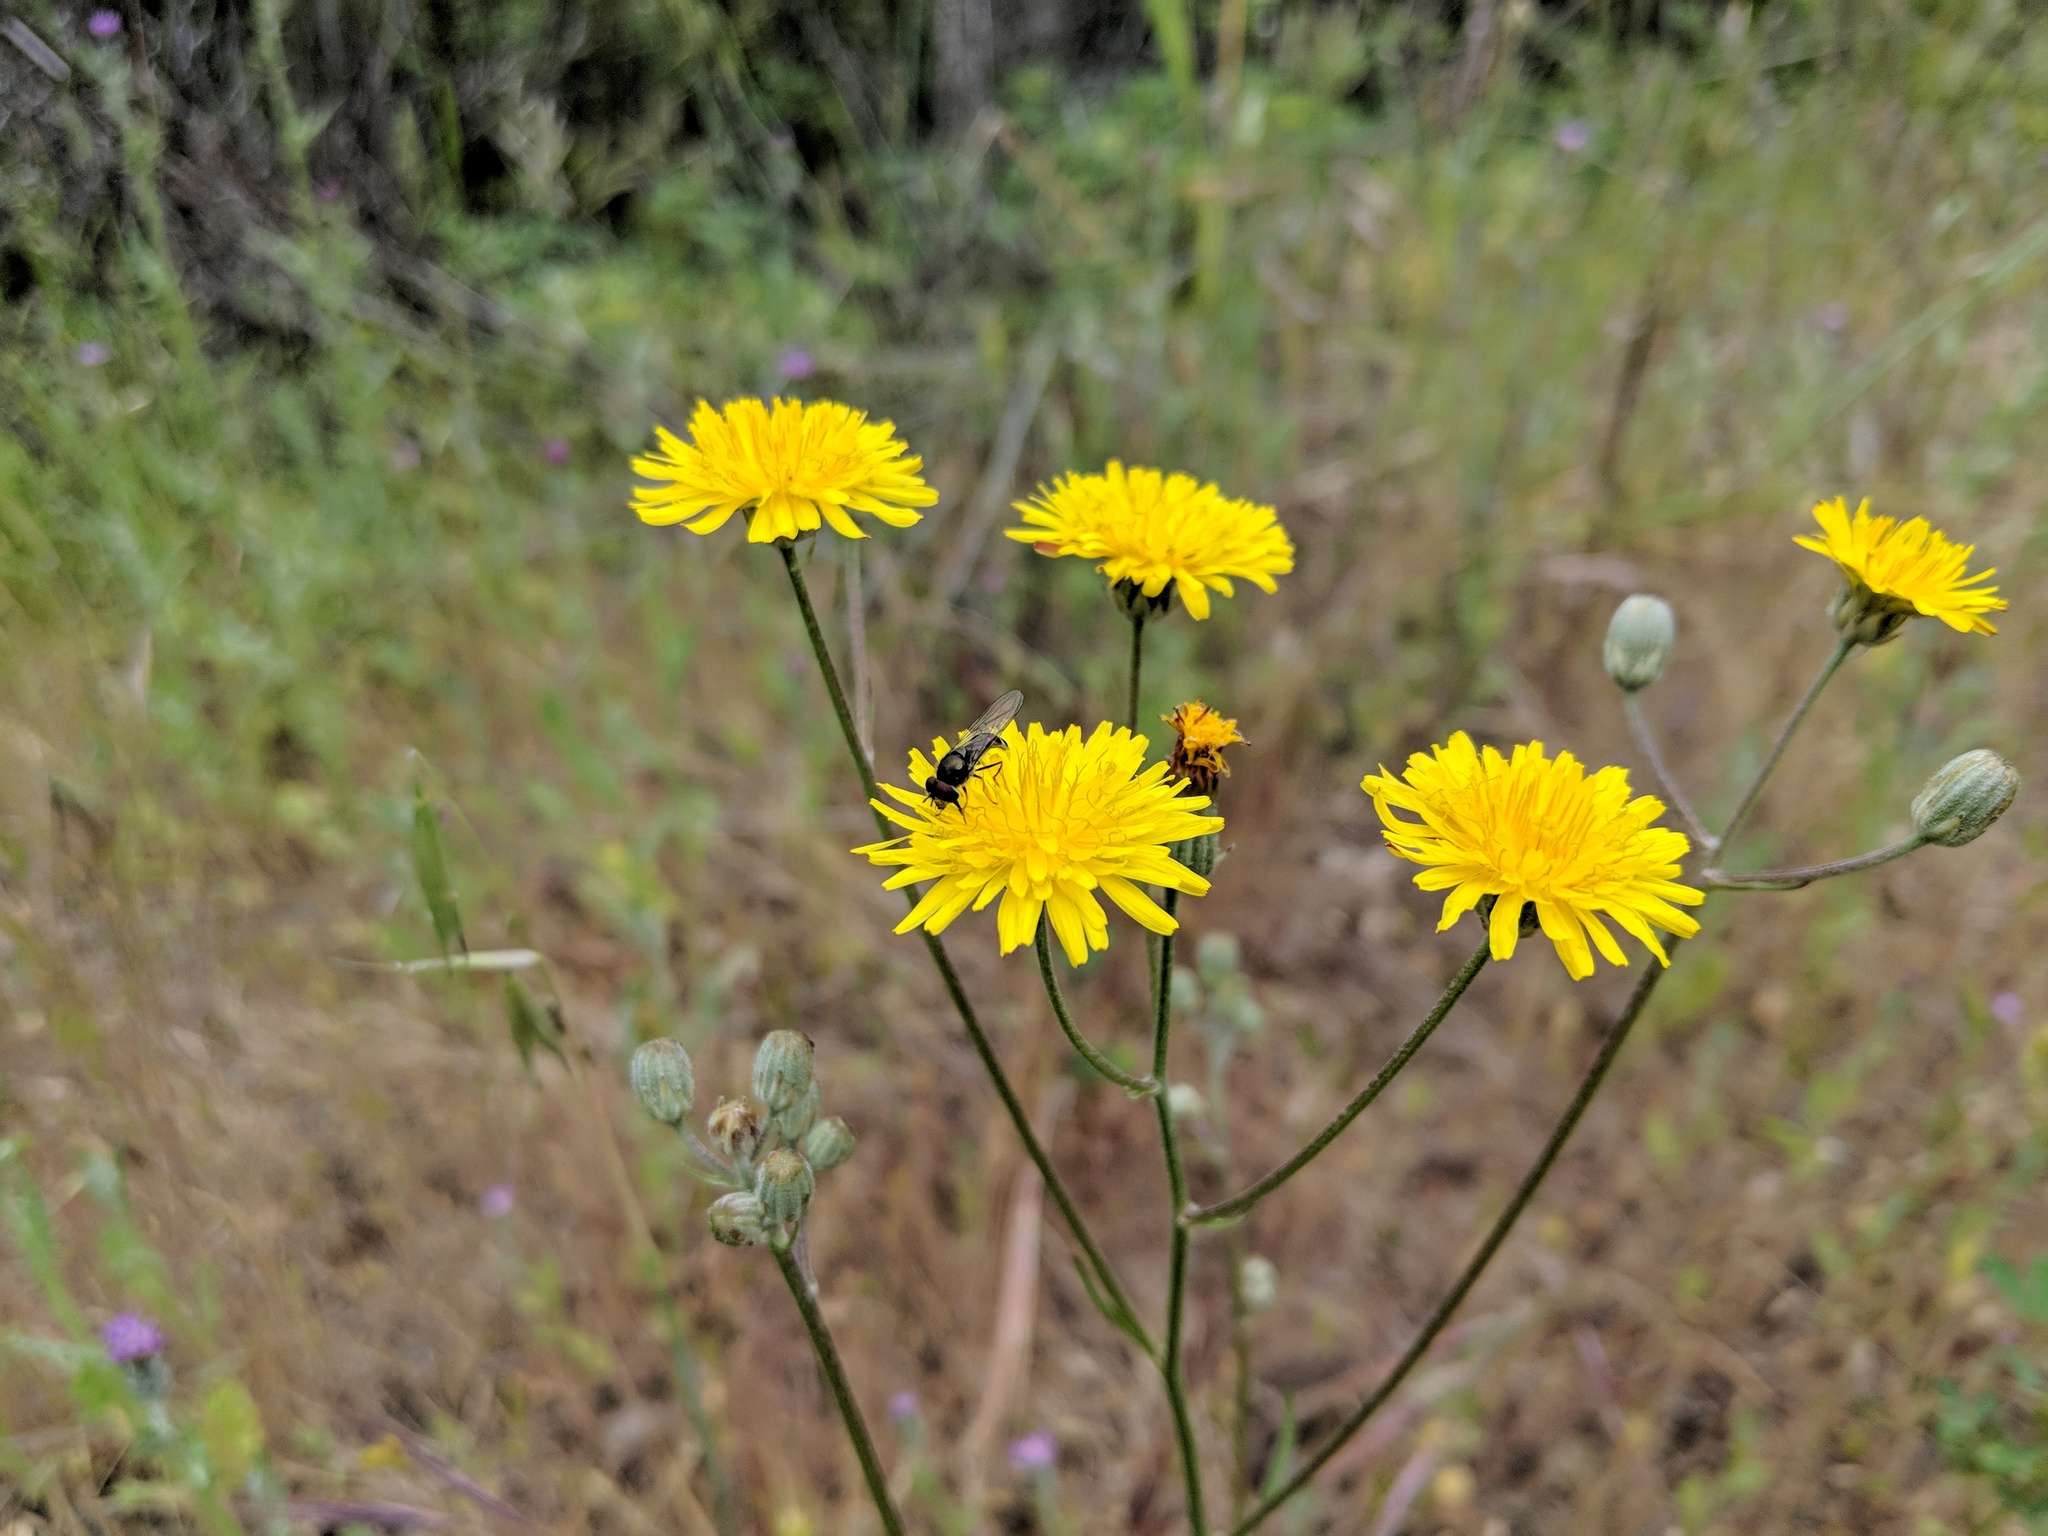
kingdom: Plantae
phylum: Tracheophyta
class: Magnoliopsida
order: Asterales
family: Asteraceae
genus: Hypochaeris
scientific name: Hypochaeris radicata
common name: Flatweed
